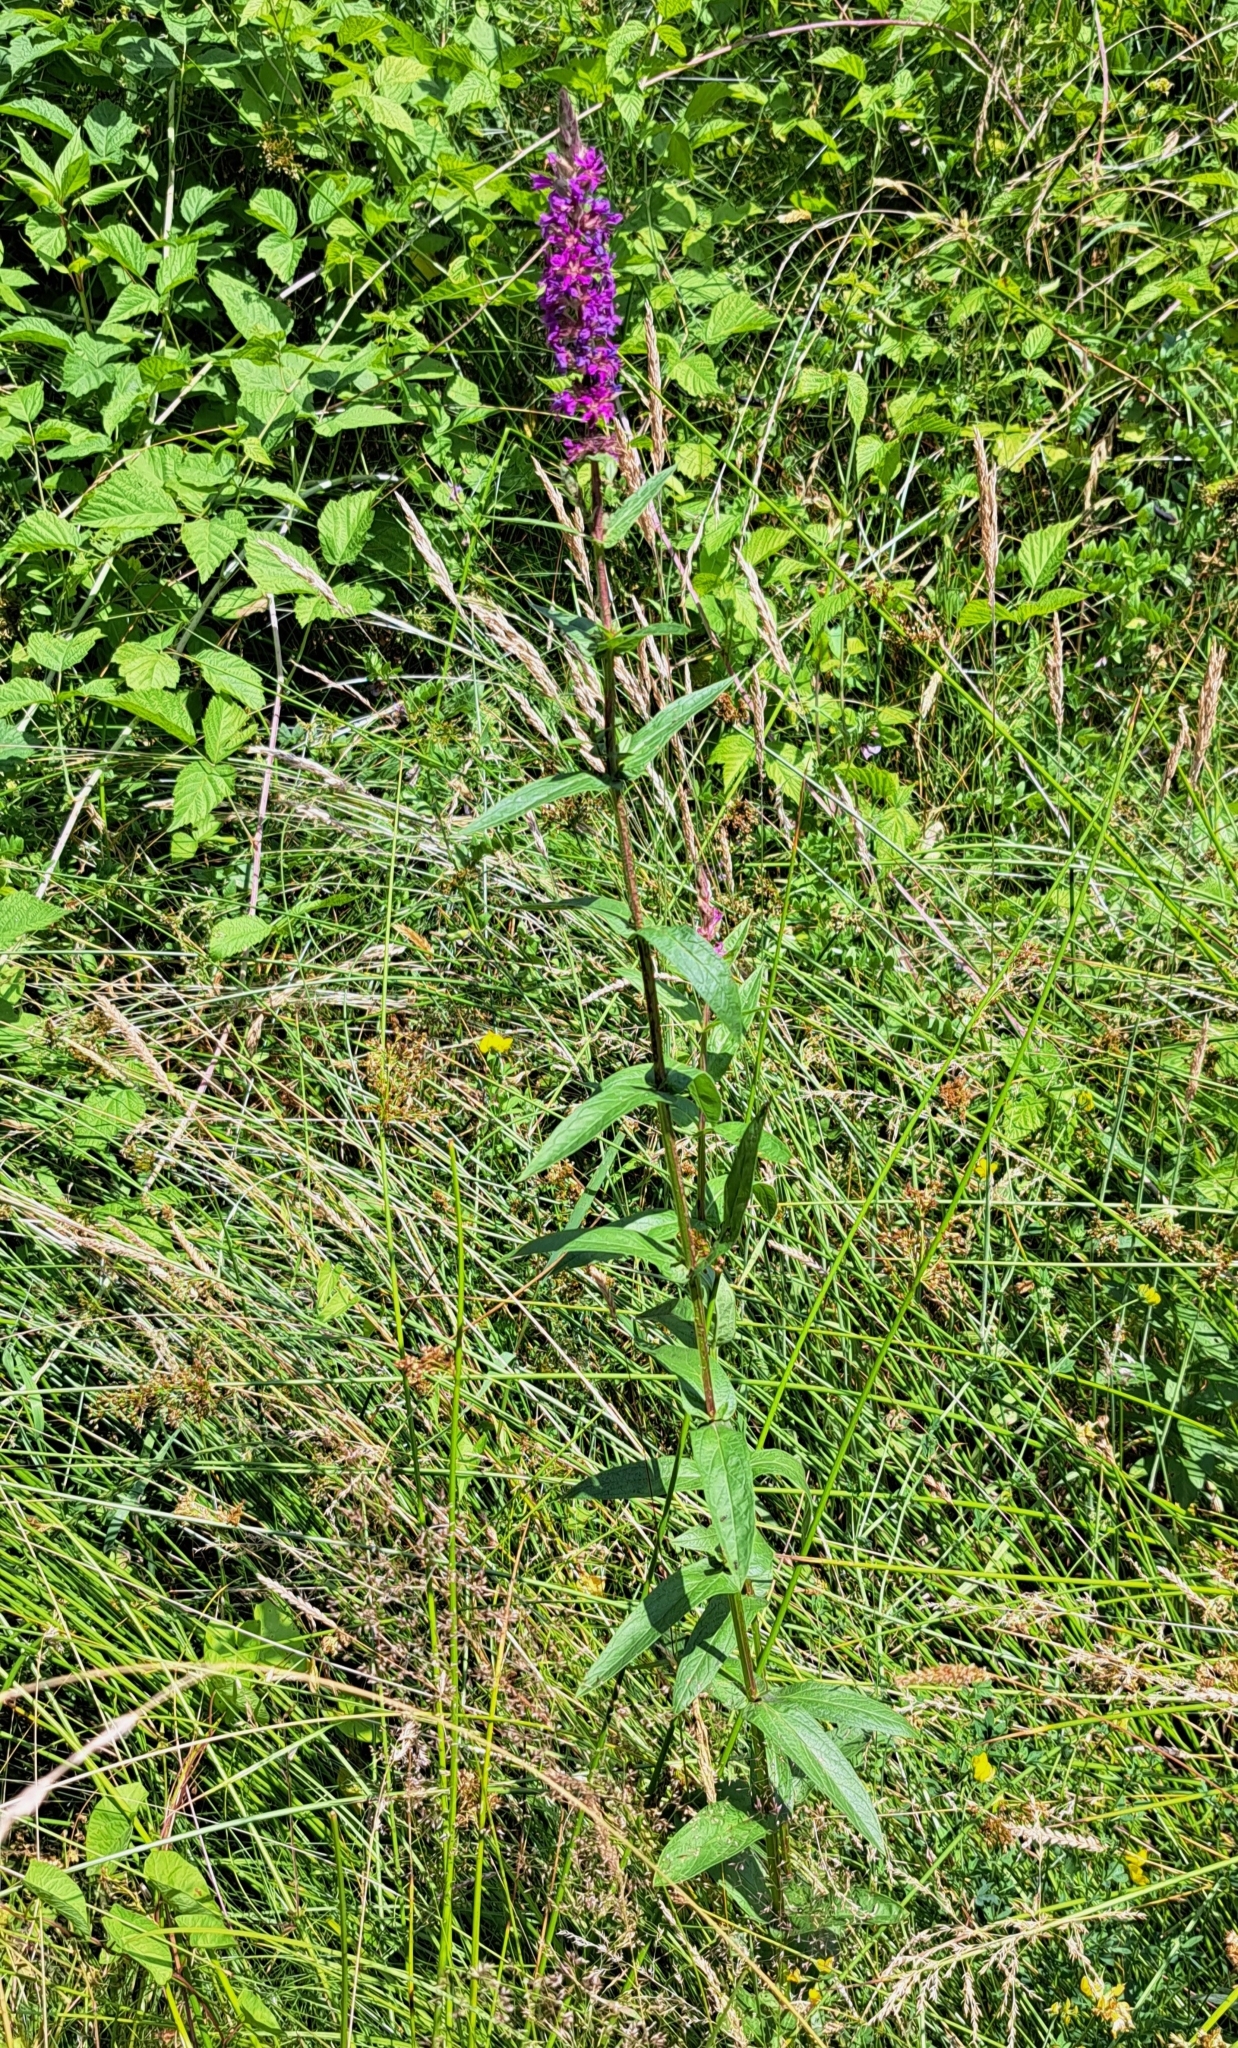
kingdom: Plantae
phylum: Tracheophyta
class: Magnoliopsida
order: Myrtales
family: Lythraceae
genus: Lythrum
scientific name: Lythrum salicaria
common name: Purple loosestrife
